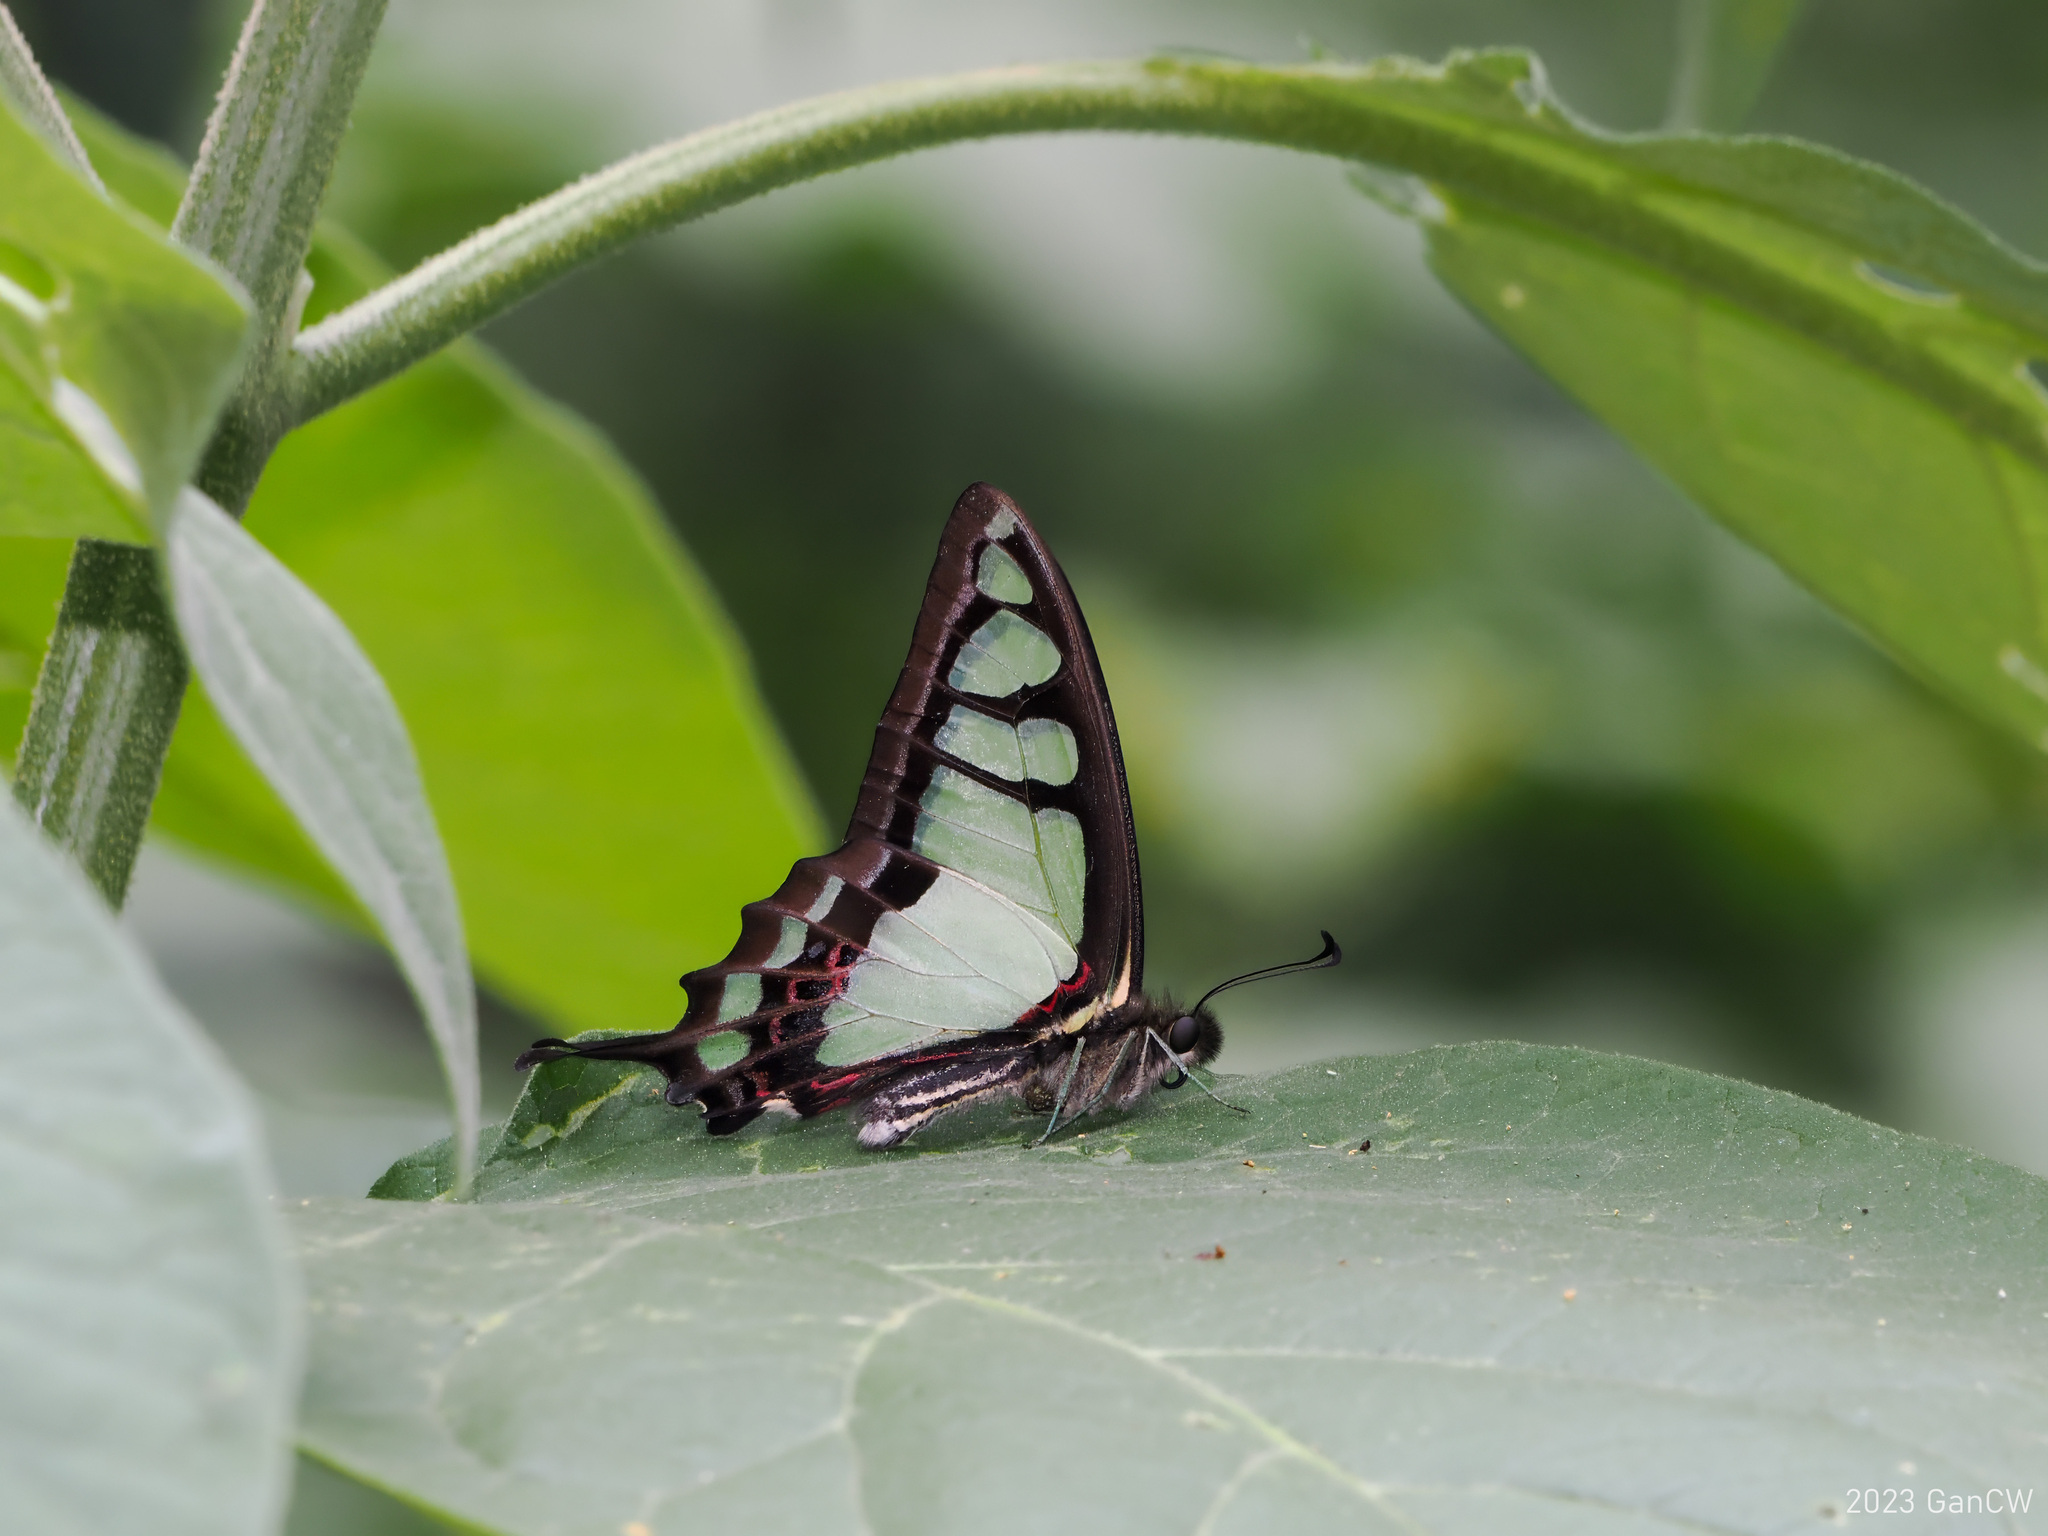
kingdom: Animalia
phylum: Arthropoda
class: Insecta
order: Lepidoptera
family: Papilionidae
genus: Graphium
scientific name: Graphium cloanthus
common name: Glassy bluebottle
